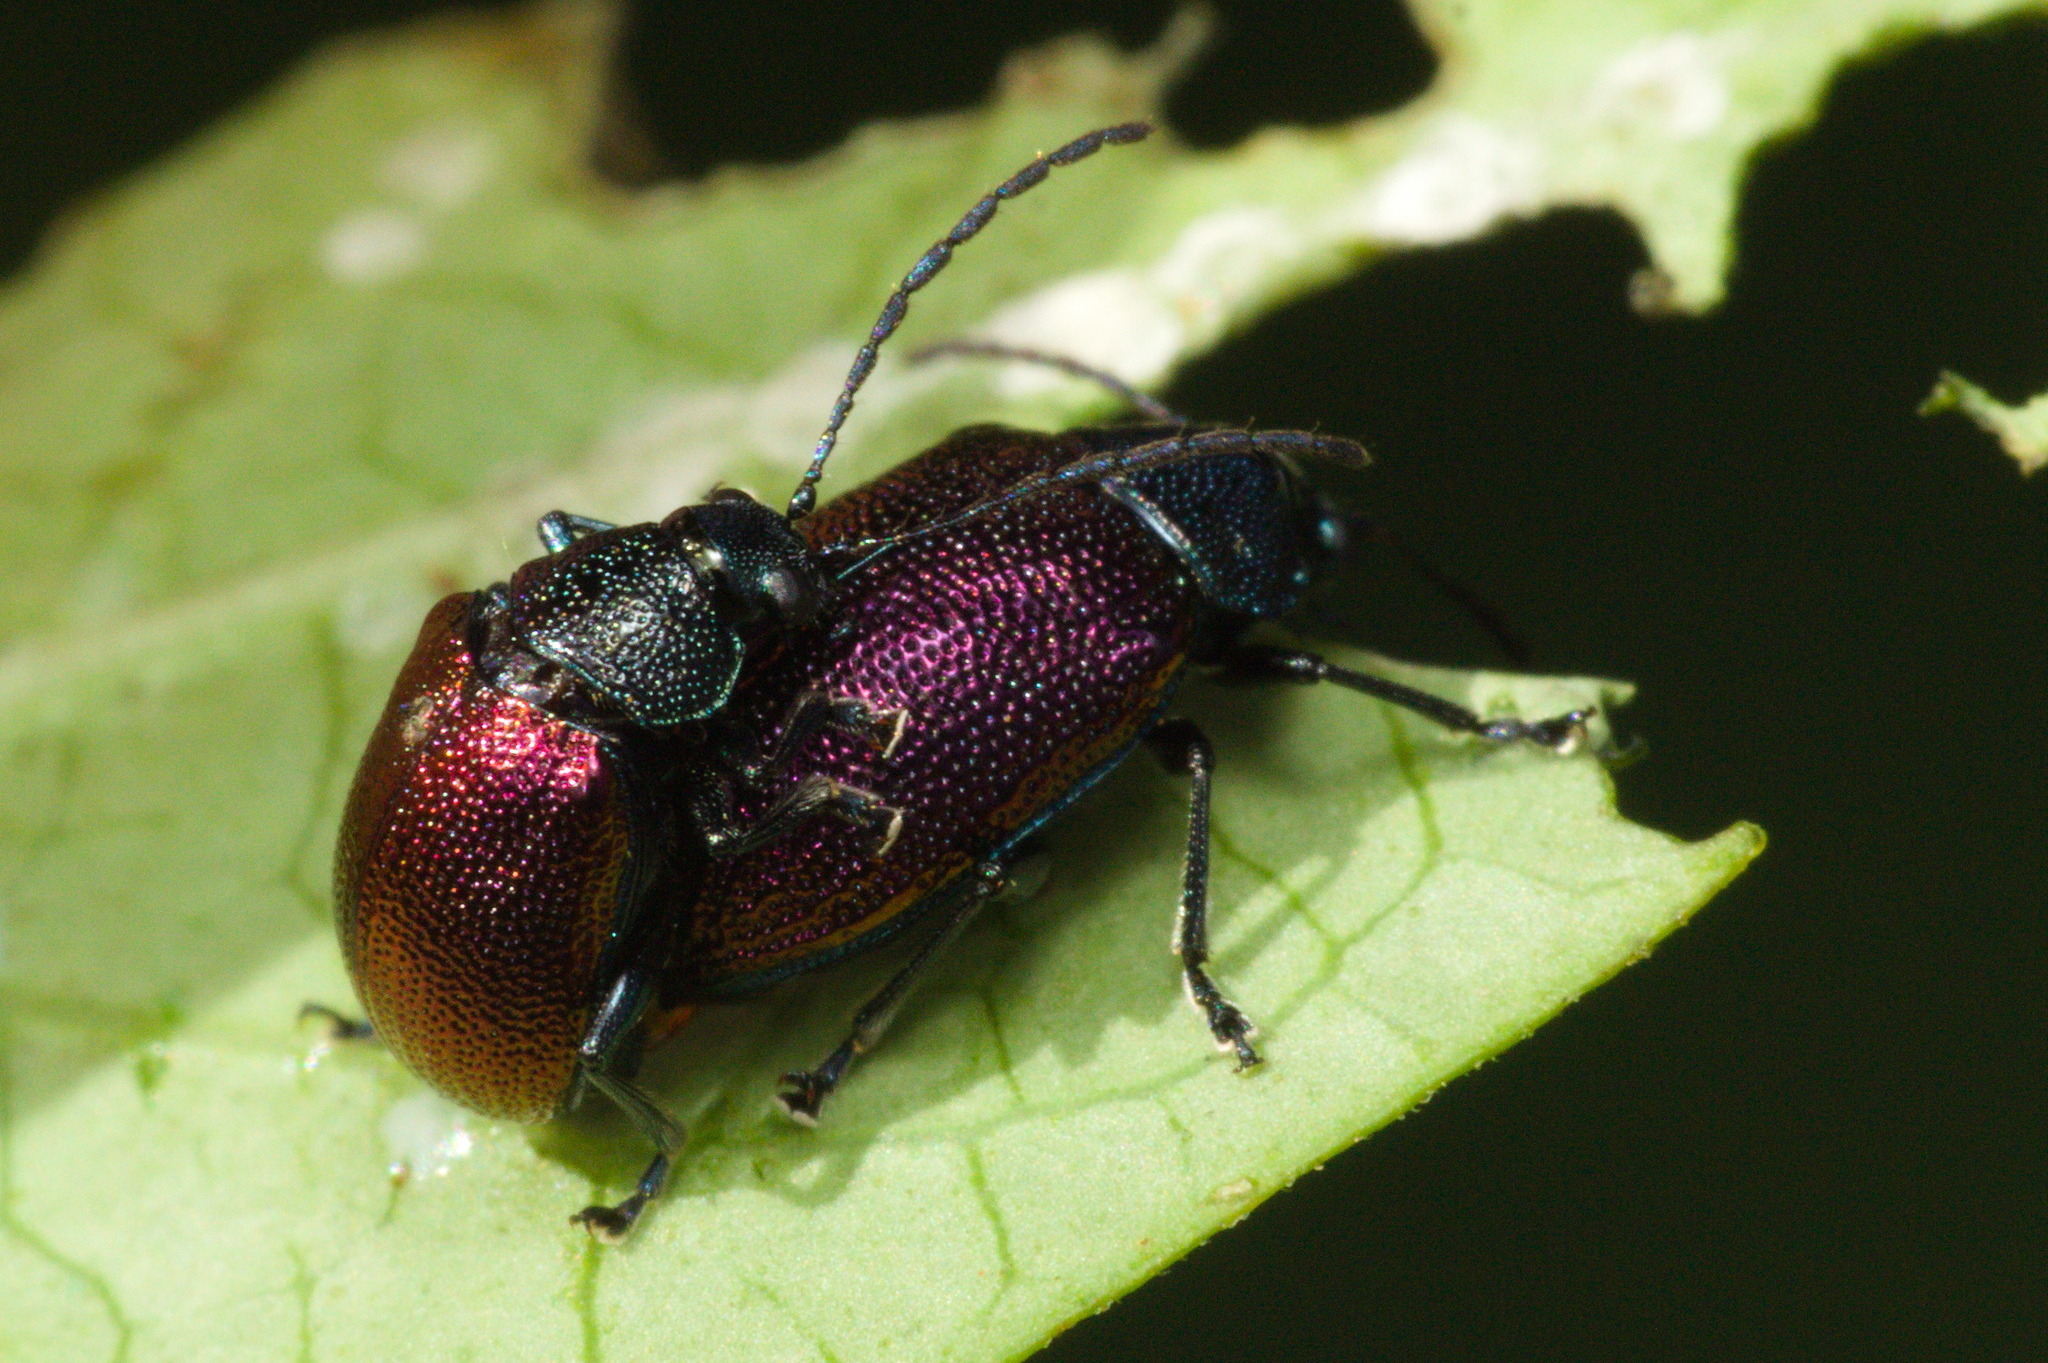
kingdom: Animalia
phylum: Arthropoda
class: Insecta
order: Coleoptera
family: Chrysomelidae
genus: Freudeita
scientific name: Freudeita
